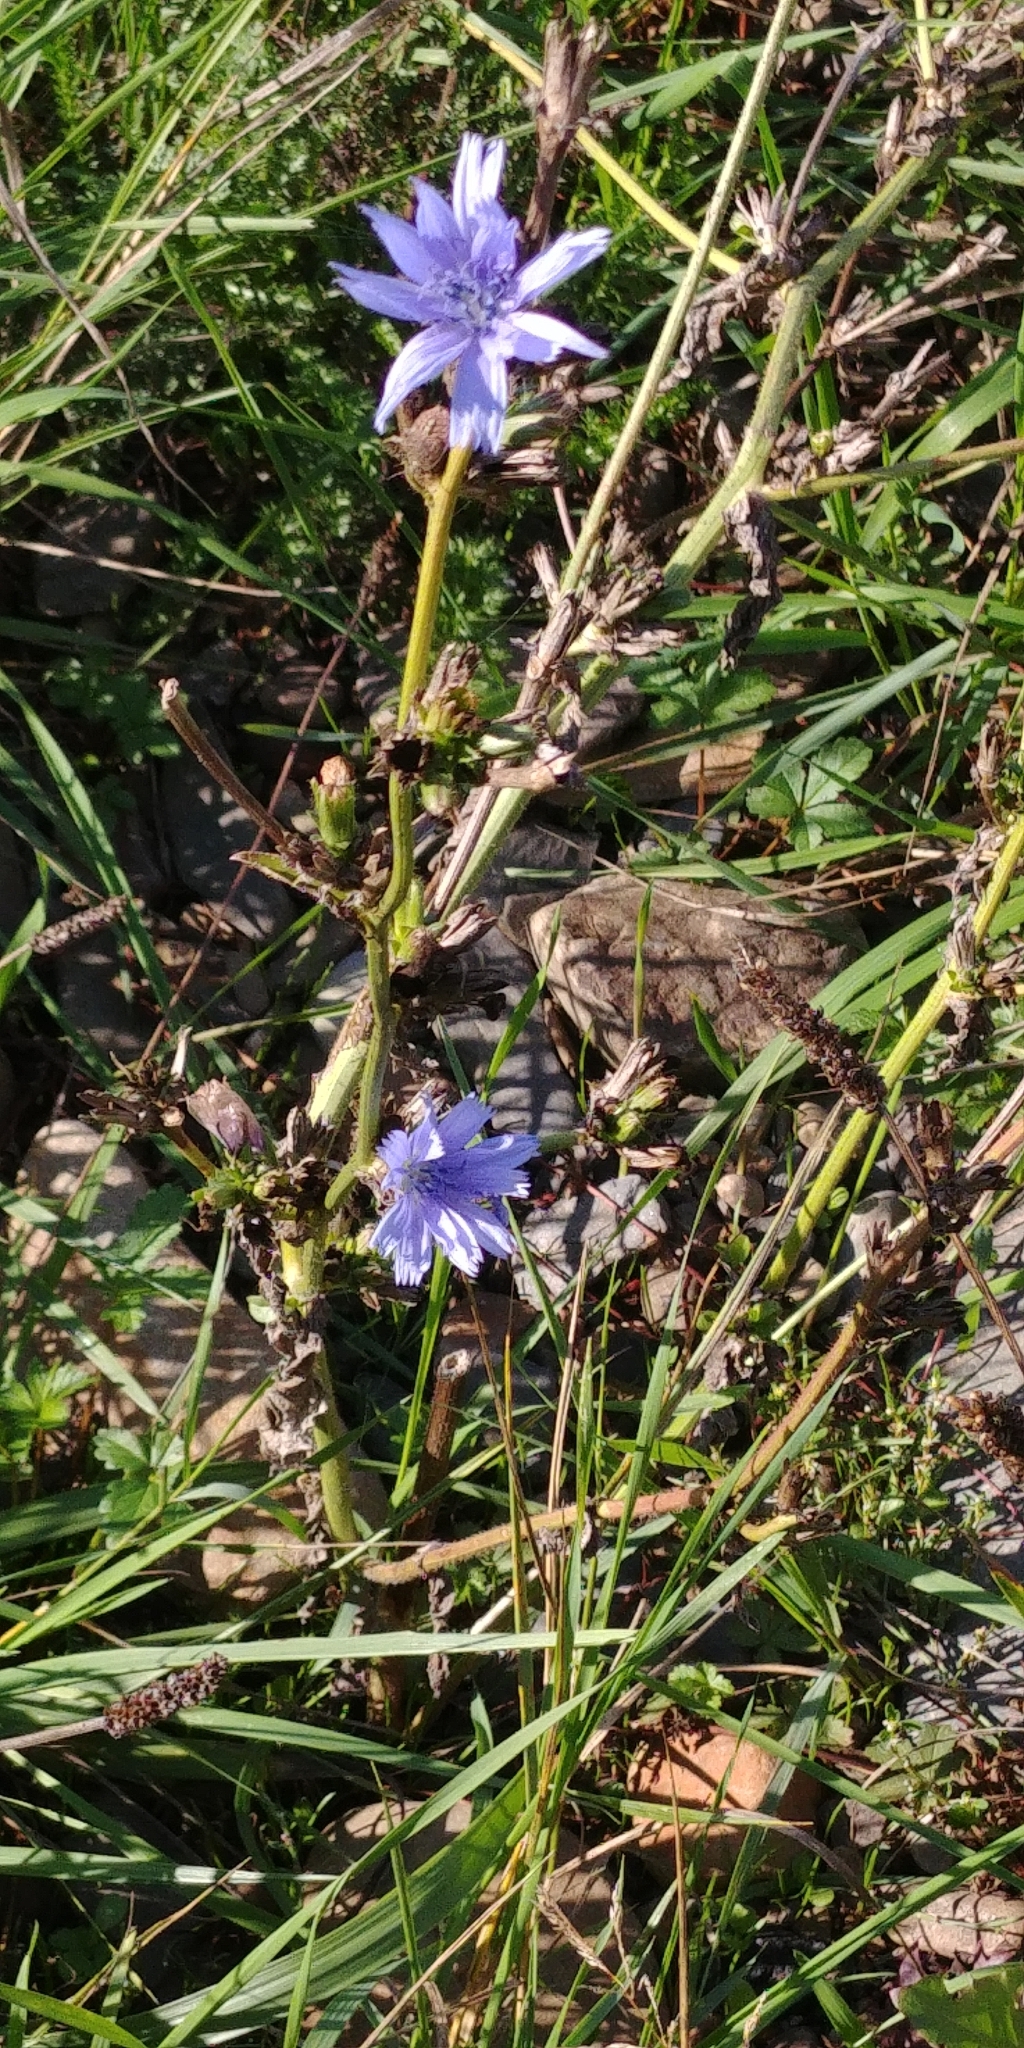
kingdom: Plantae
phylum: Tracheophyta
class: Magnoliopsida
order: Asterales
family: Asteraceae
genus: Cichorium
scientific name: Cichorium intybus
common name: Chicory
